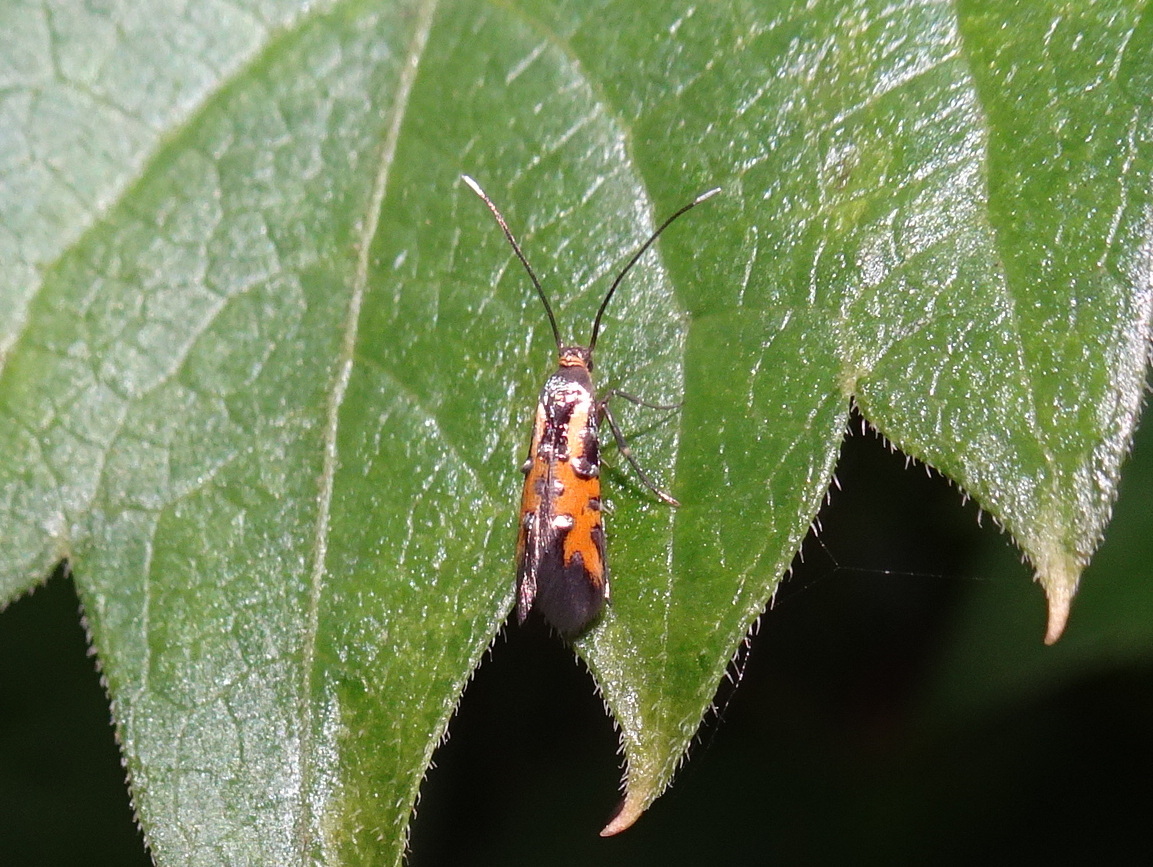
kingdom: Animalia
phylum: Arthropoda
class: Insecta
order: Lepidoptera
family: Heliodinidae
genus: Neoheliodines
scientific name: Neoheliodines nyctaginella
